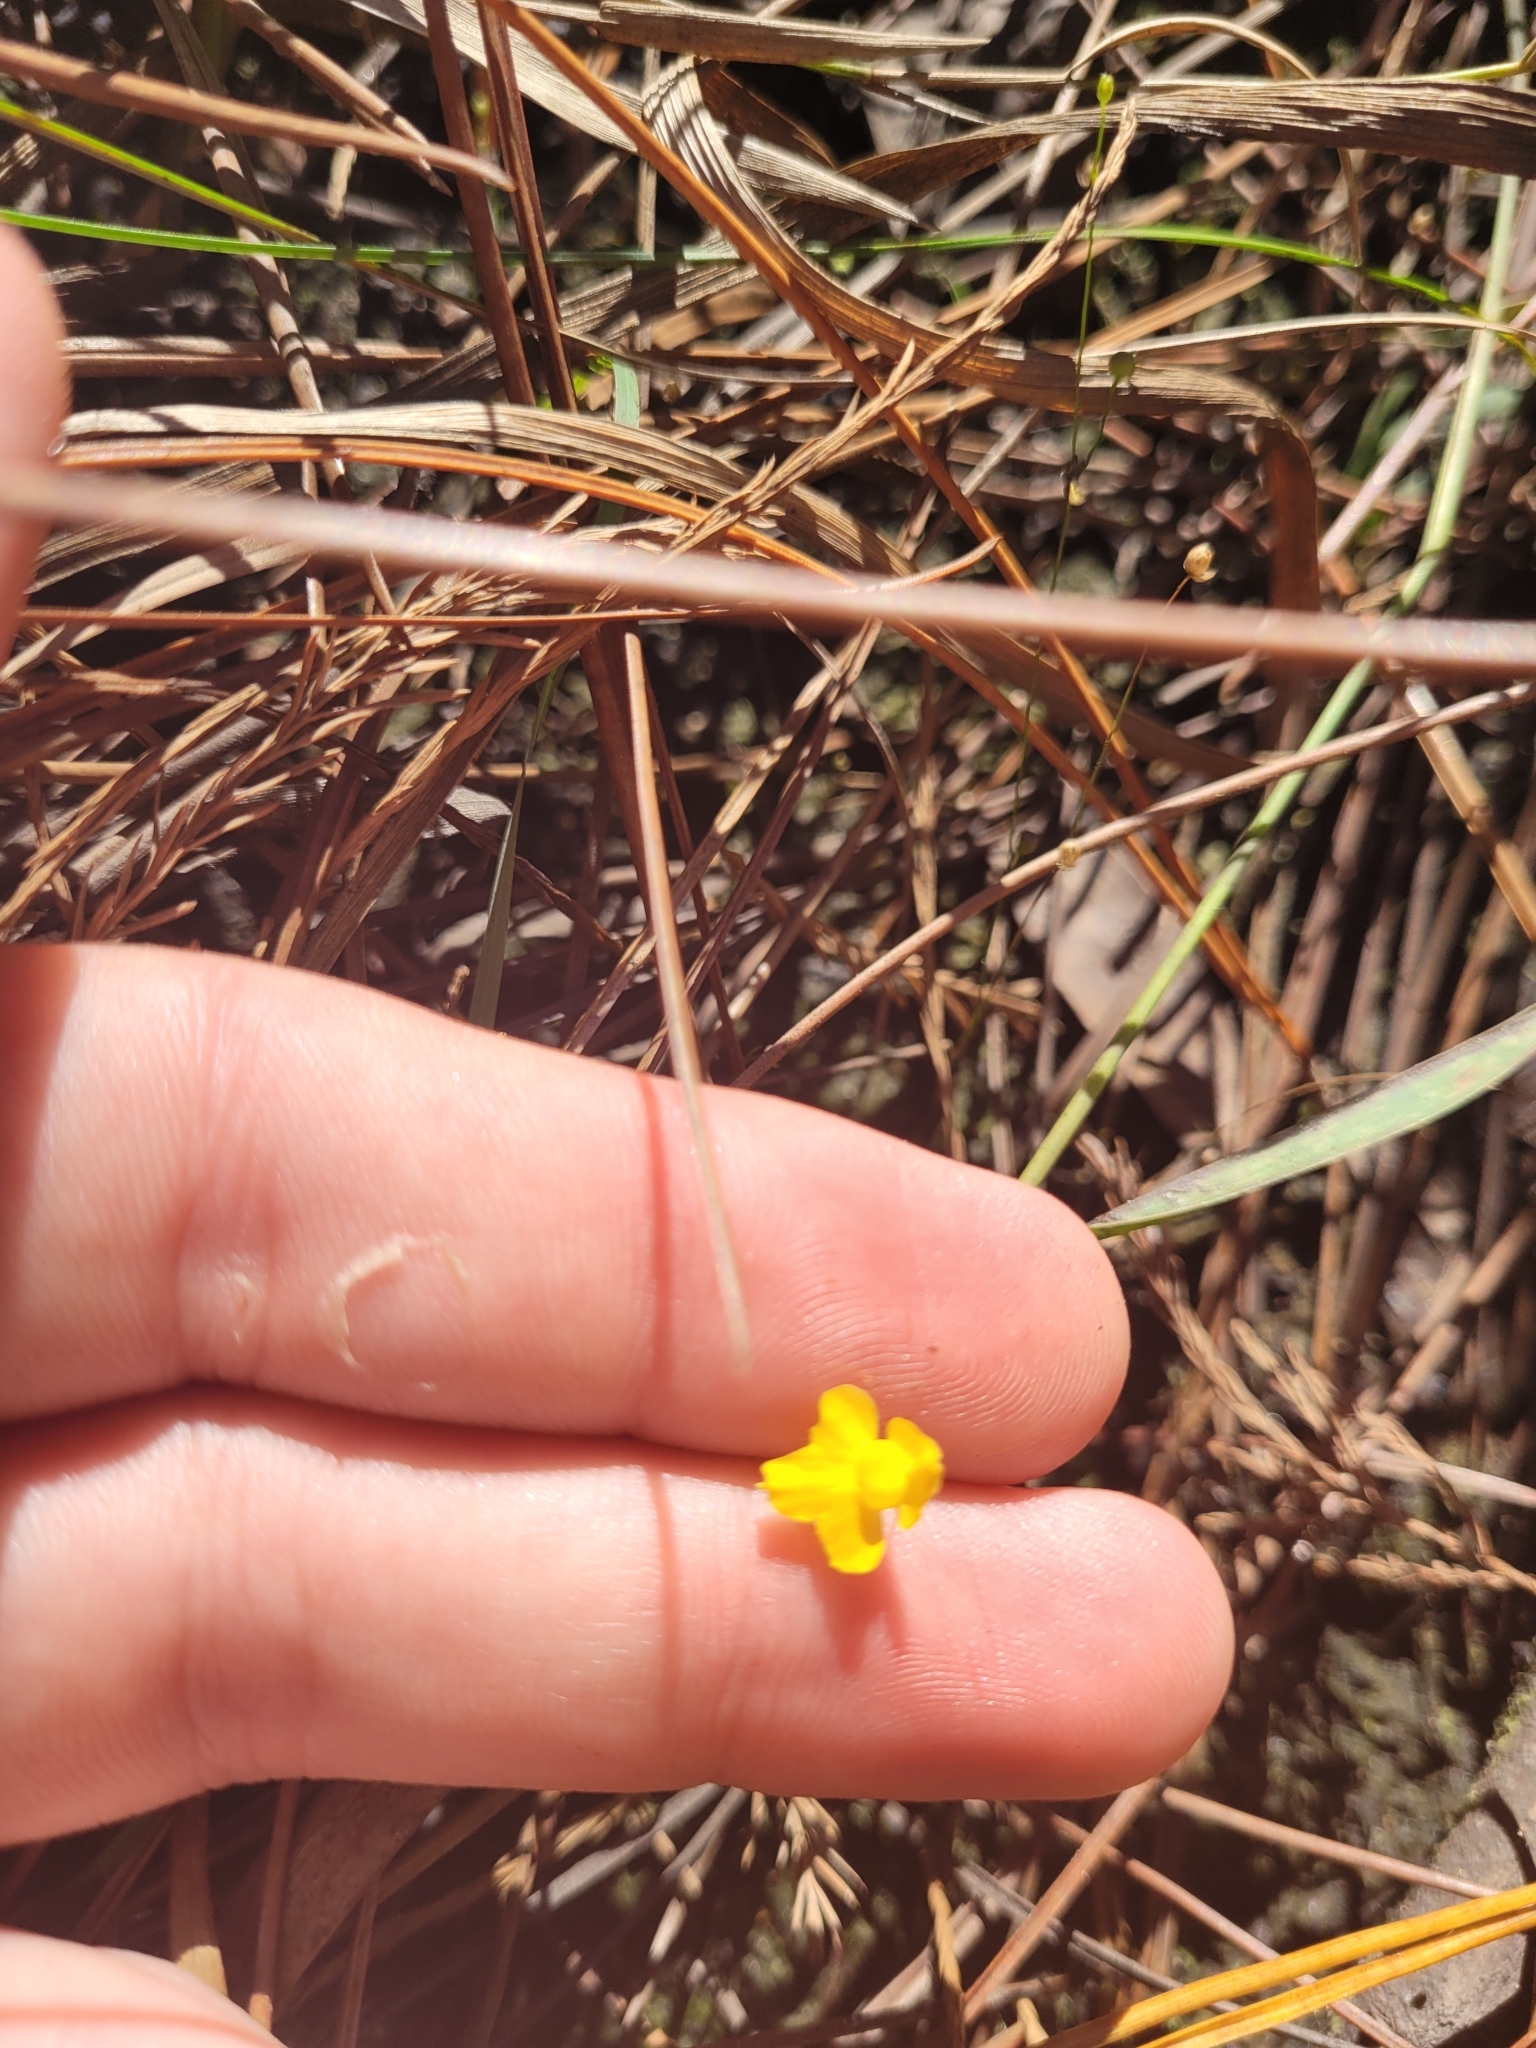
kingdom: Plantae
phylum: Tracheophyta
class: Magnoliopsida
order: Lamiales
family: Lentibulariaceae
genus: Utricularia
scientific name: Utricularia subulata
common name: Tiny bladderwort
